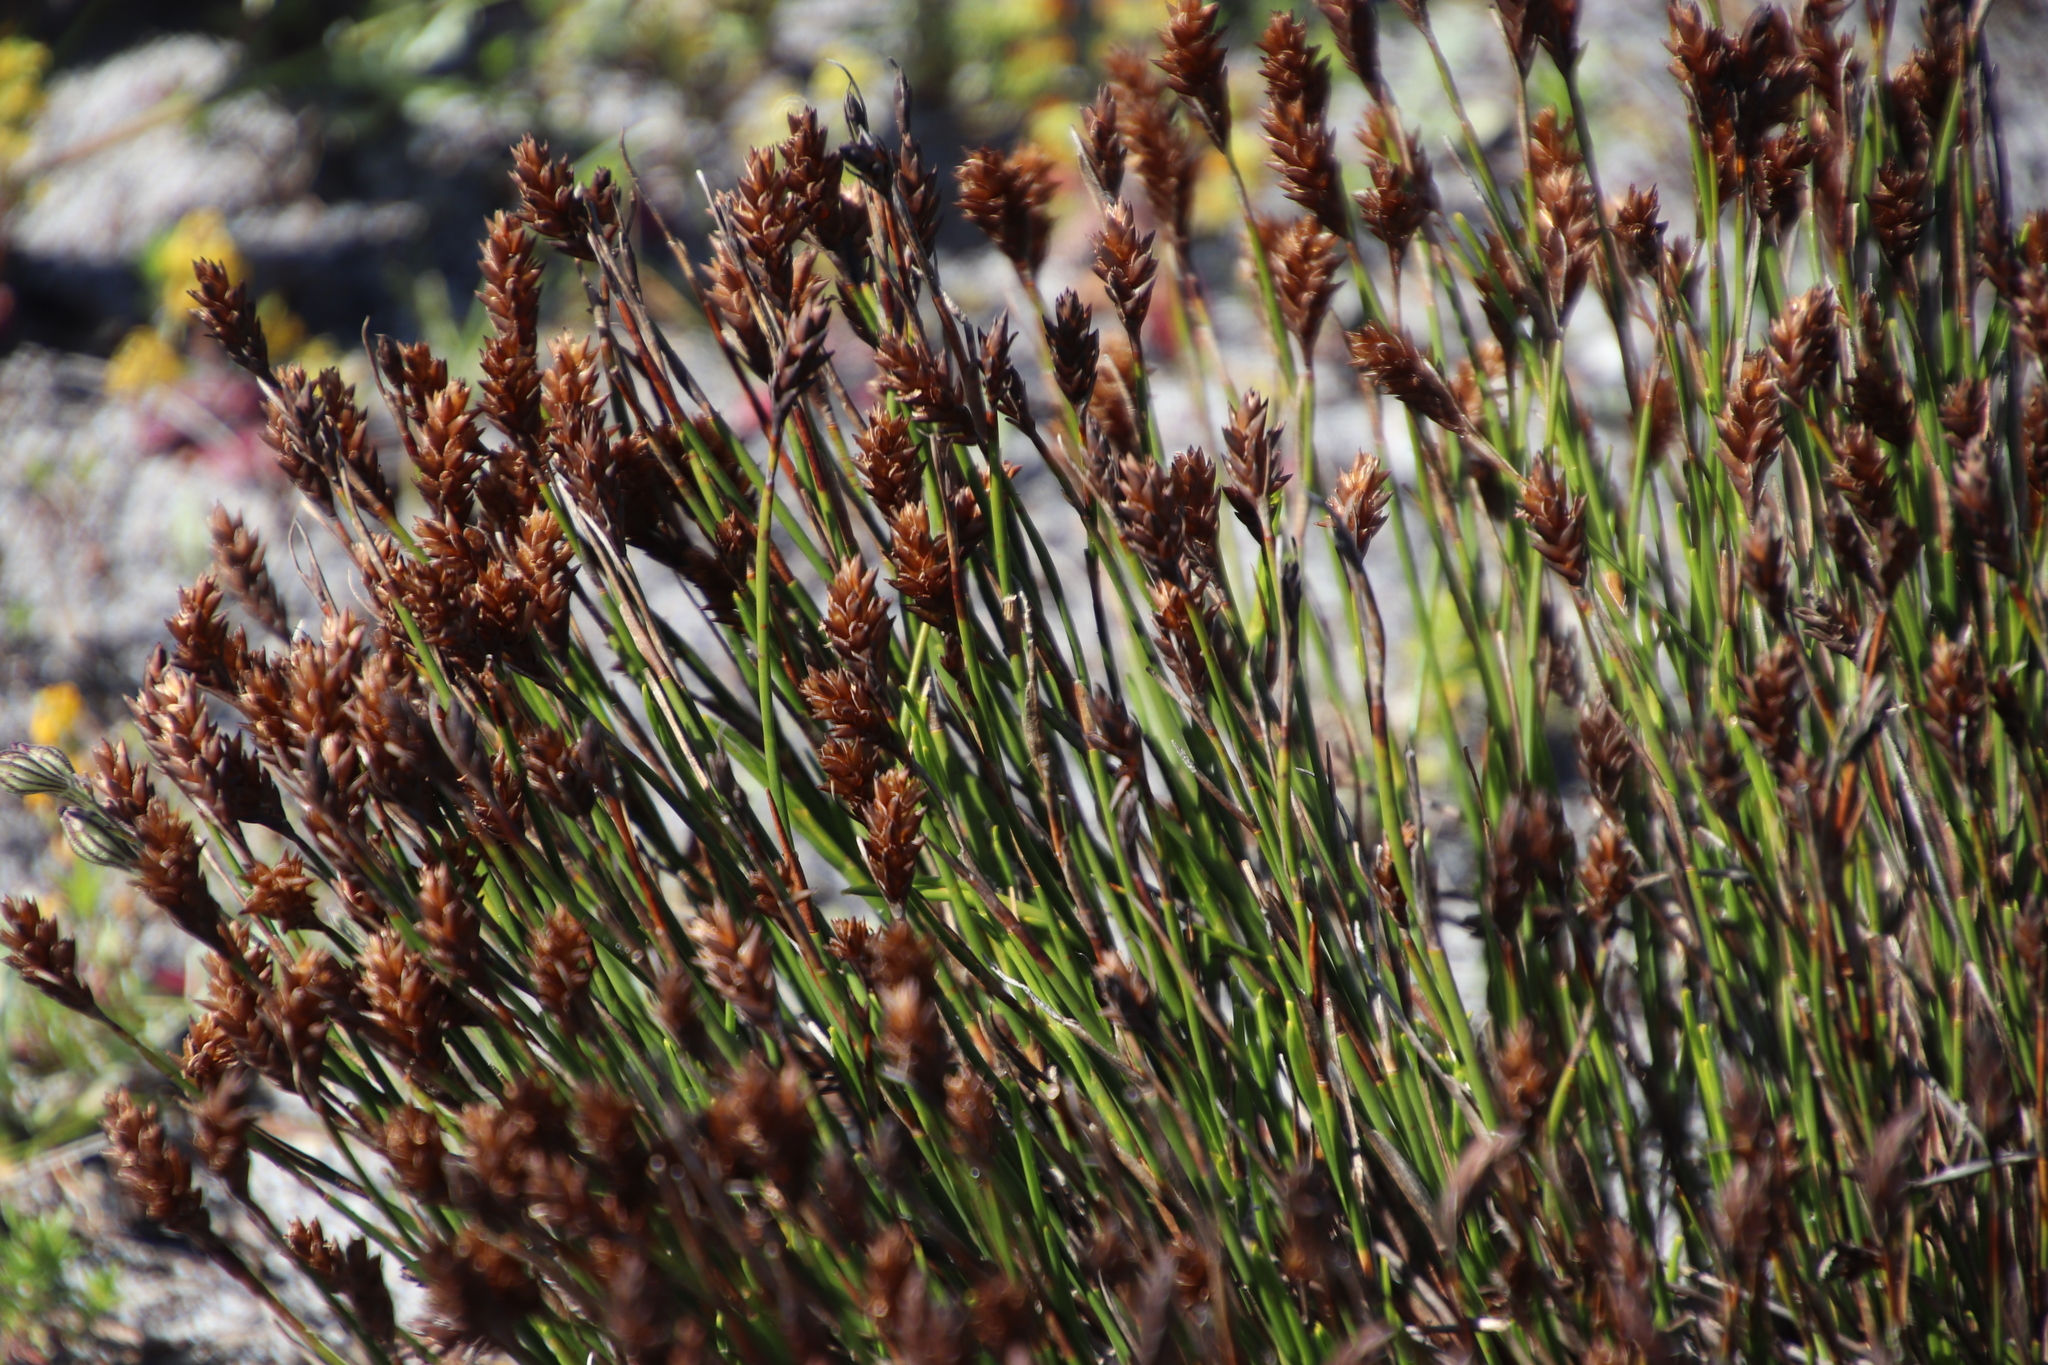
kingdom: Plantae
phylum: Tracheophyta
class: Liliopsida
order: Poales
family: Restionaceae
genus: Restio
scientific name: Restio quinquefarius
